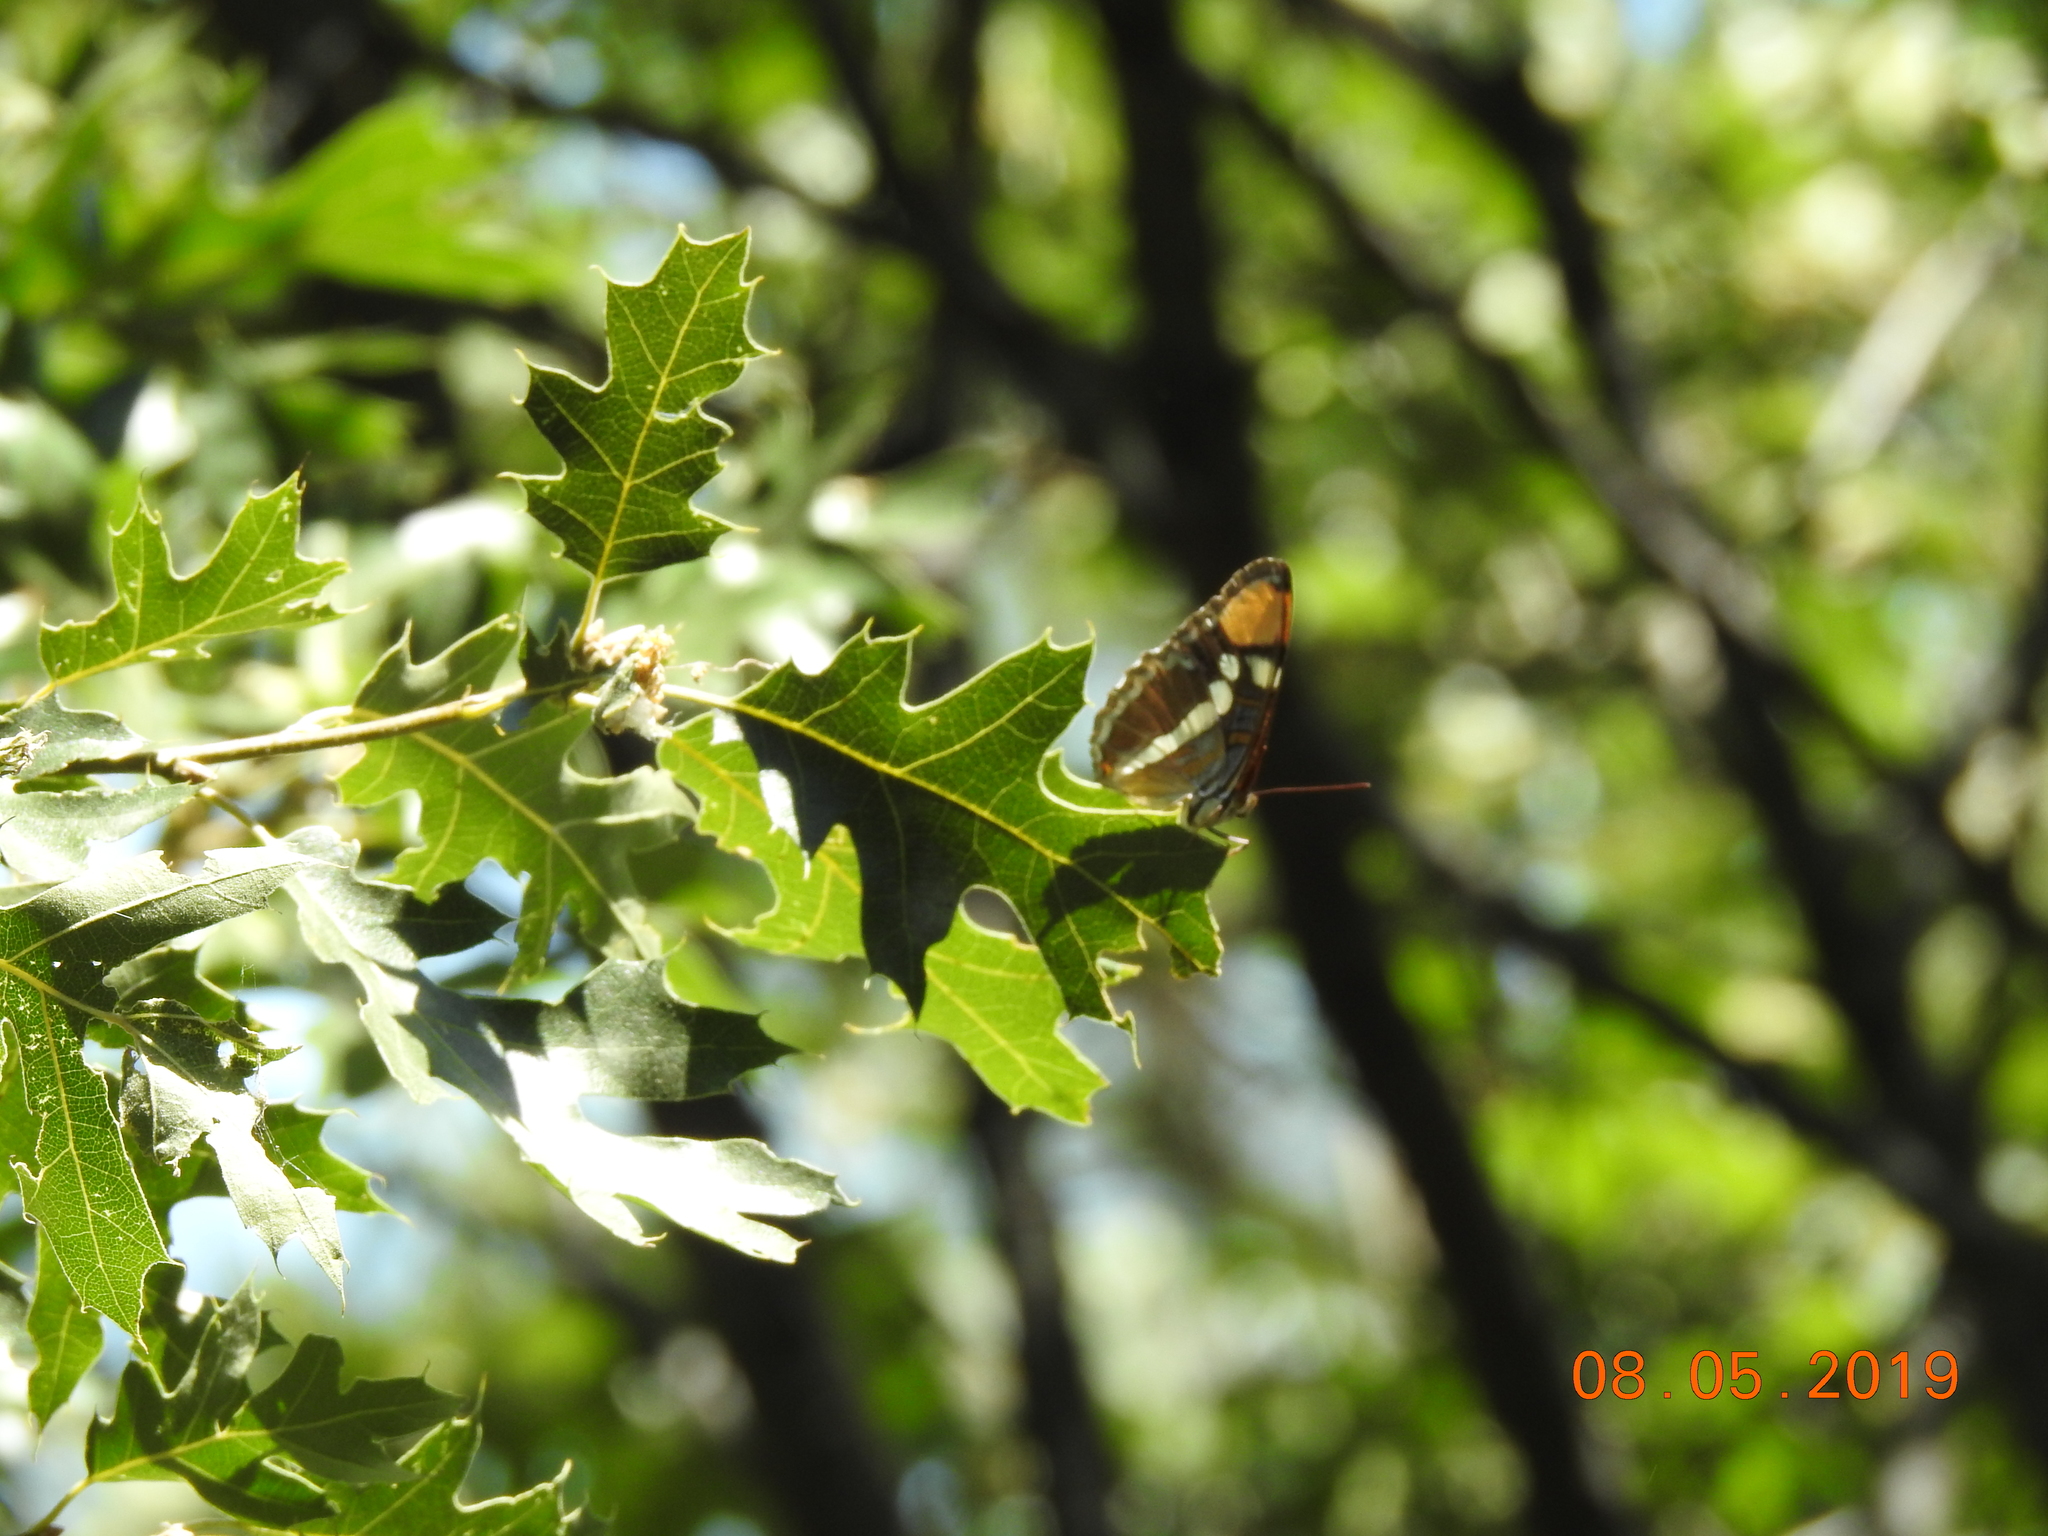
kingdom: Animalia
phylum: Arthropoda
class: Insecta
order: Lepidoptera
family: Nymphalidae
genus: Limenitis
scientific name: Limenitis bredowii
